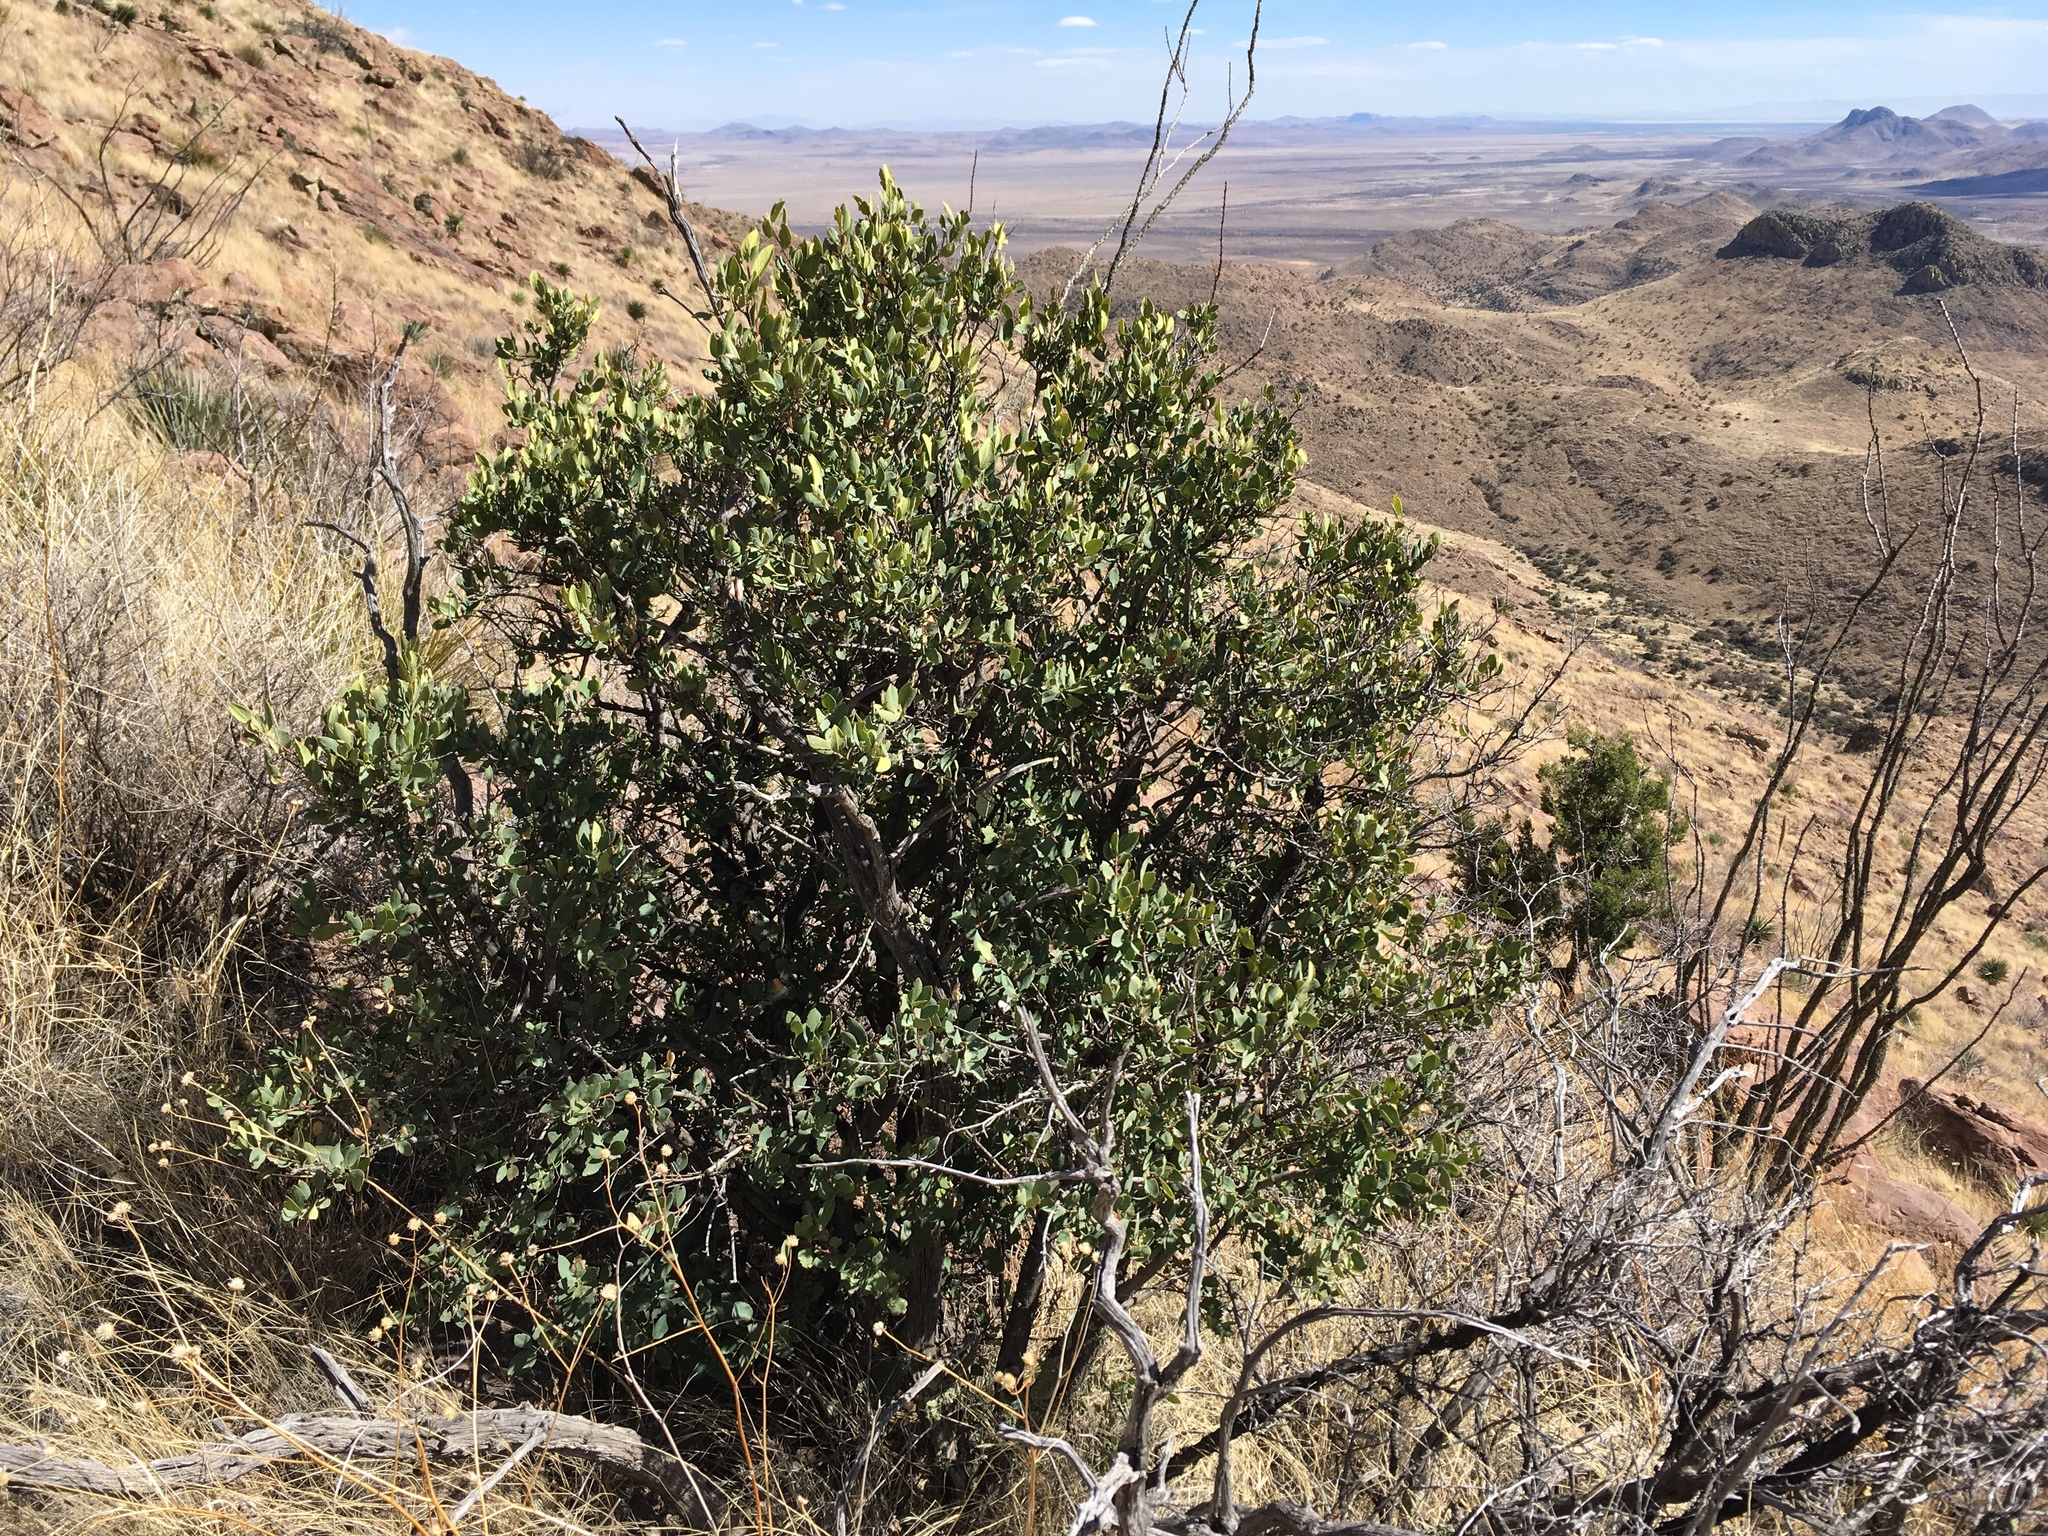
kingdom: Plantae
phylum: Tracheophyta
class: Magnoliopsida
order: Garryales
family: Garryaceae
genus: Garrya
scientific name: Garrya wrightii
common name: Wright's silktassel
